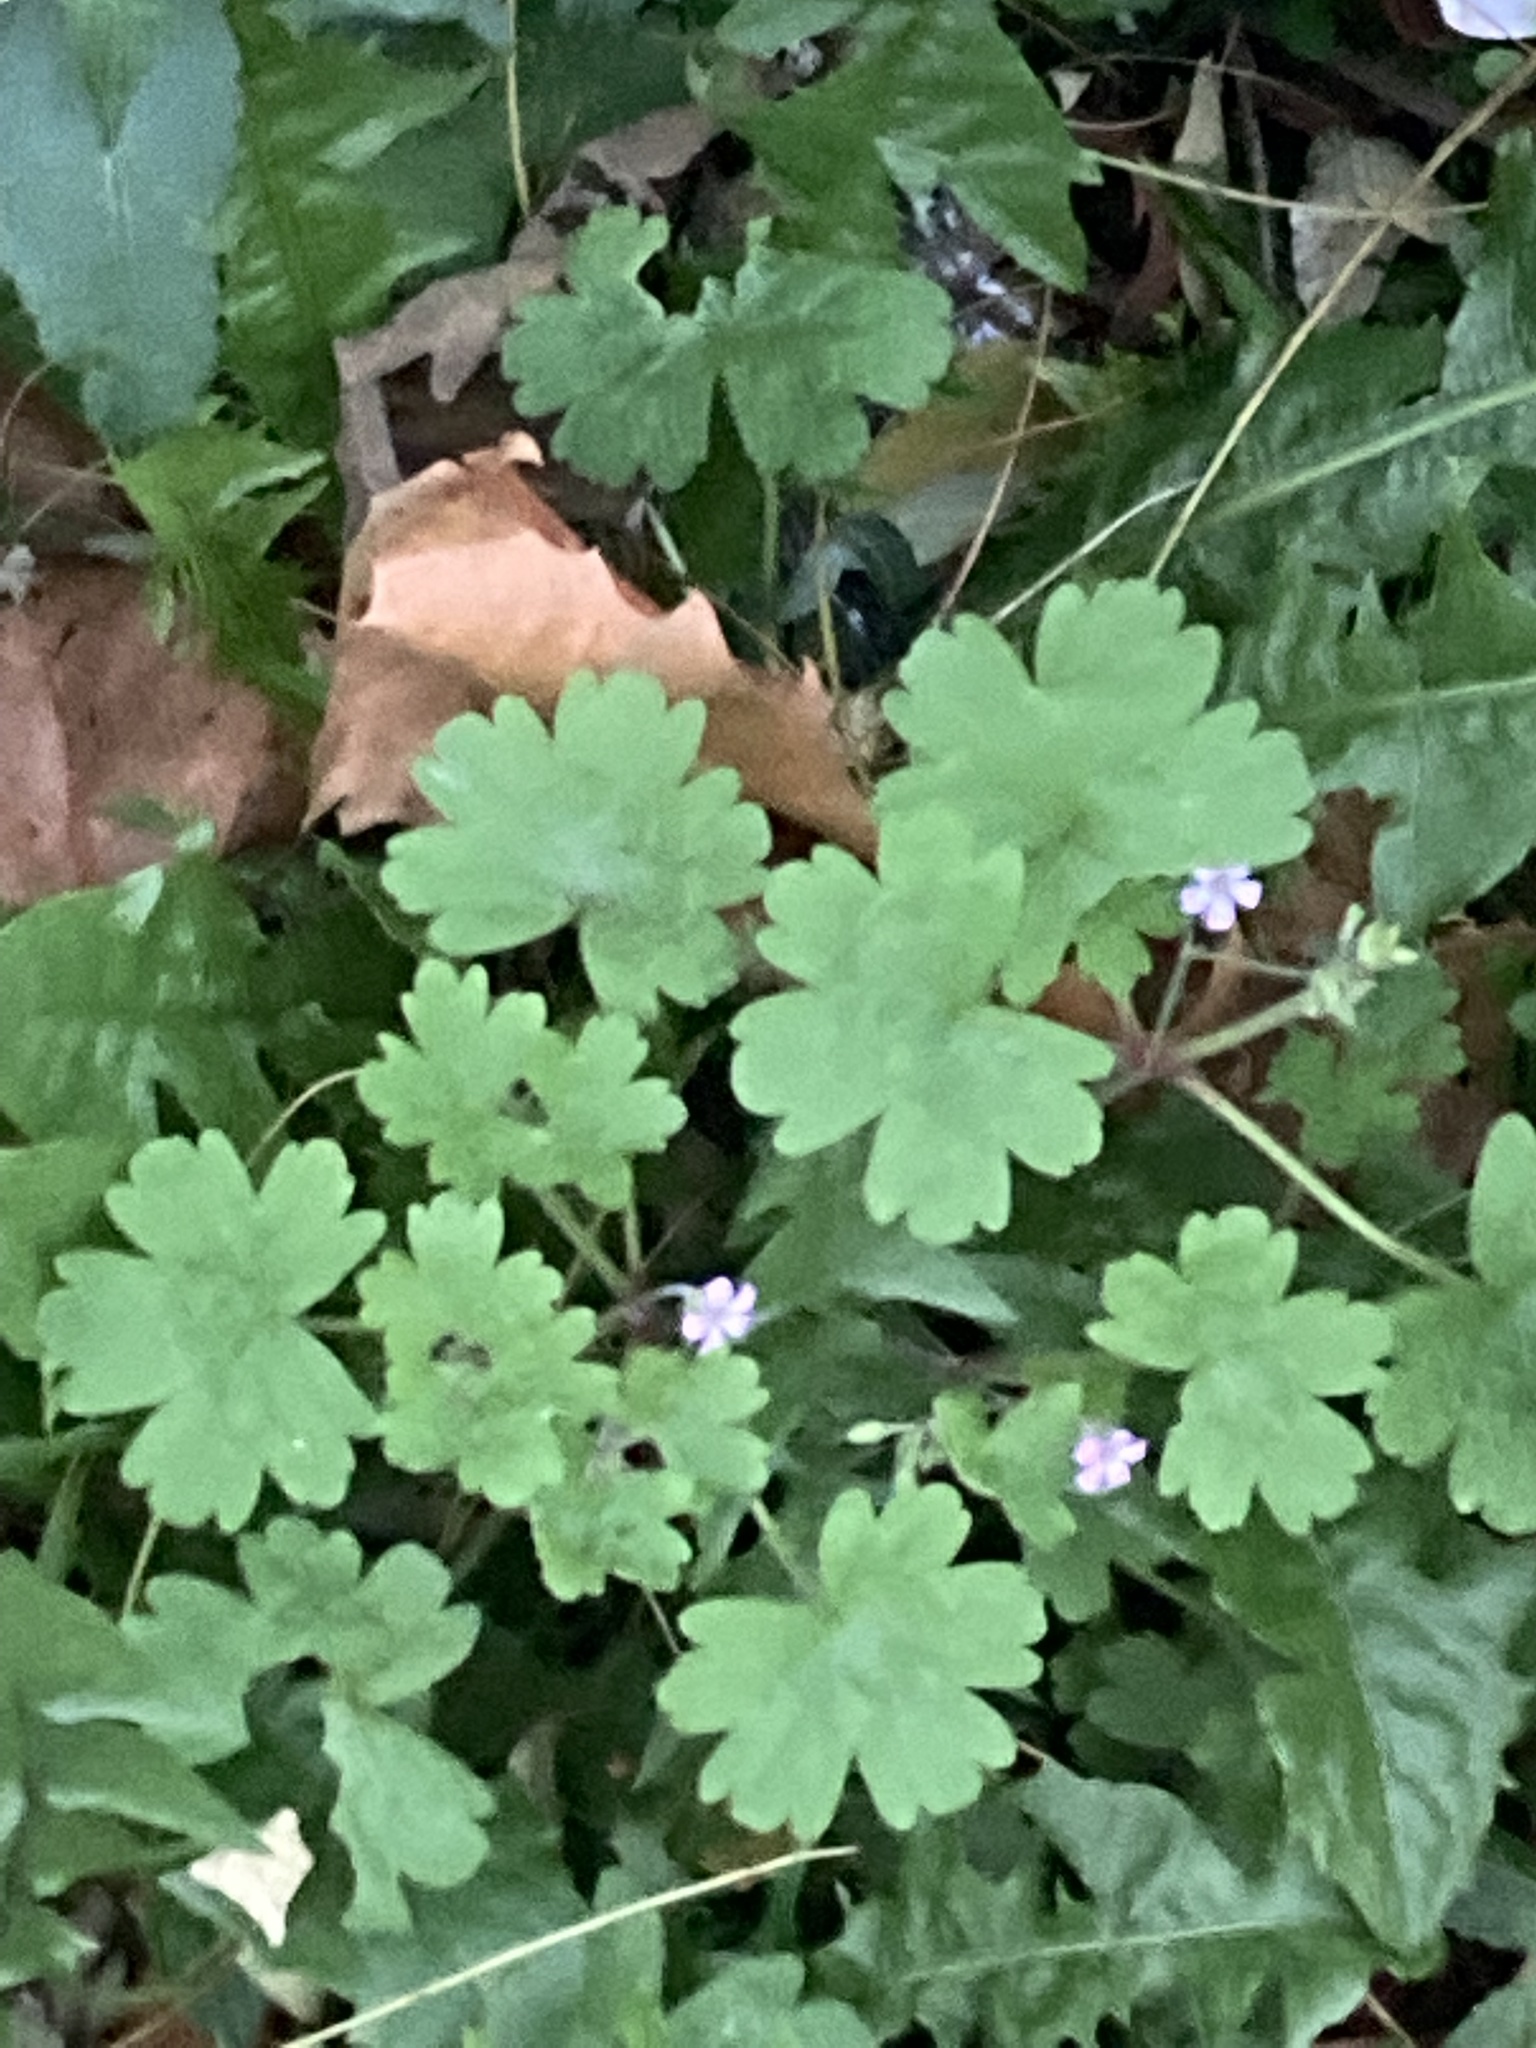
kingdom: Plantae
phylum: Tracheophyta
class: Magnoliopsida
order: Geraniales
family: Geraniaceae
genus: Geranium
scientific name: Geranium rotundifolium
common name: Round-leaved crane's-bill
